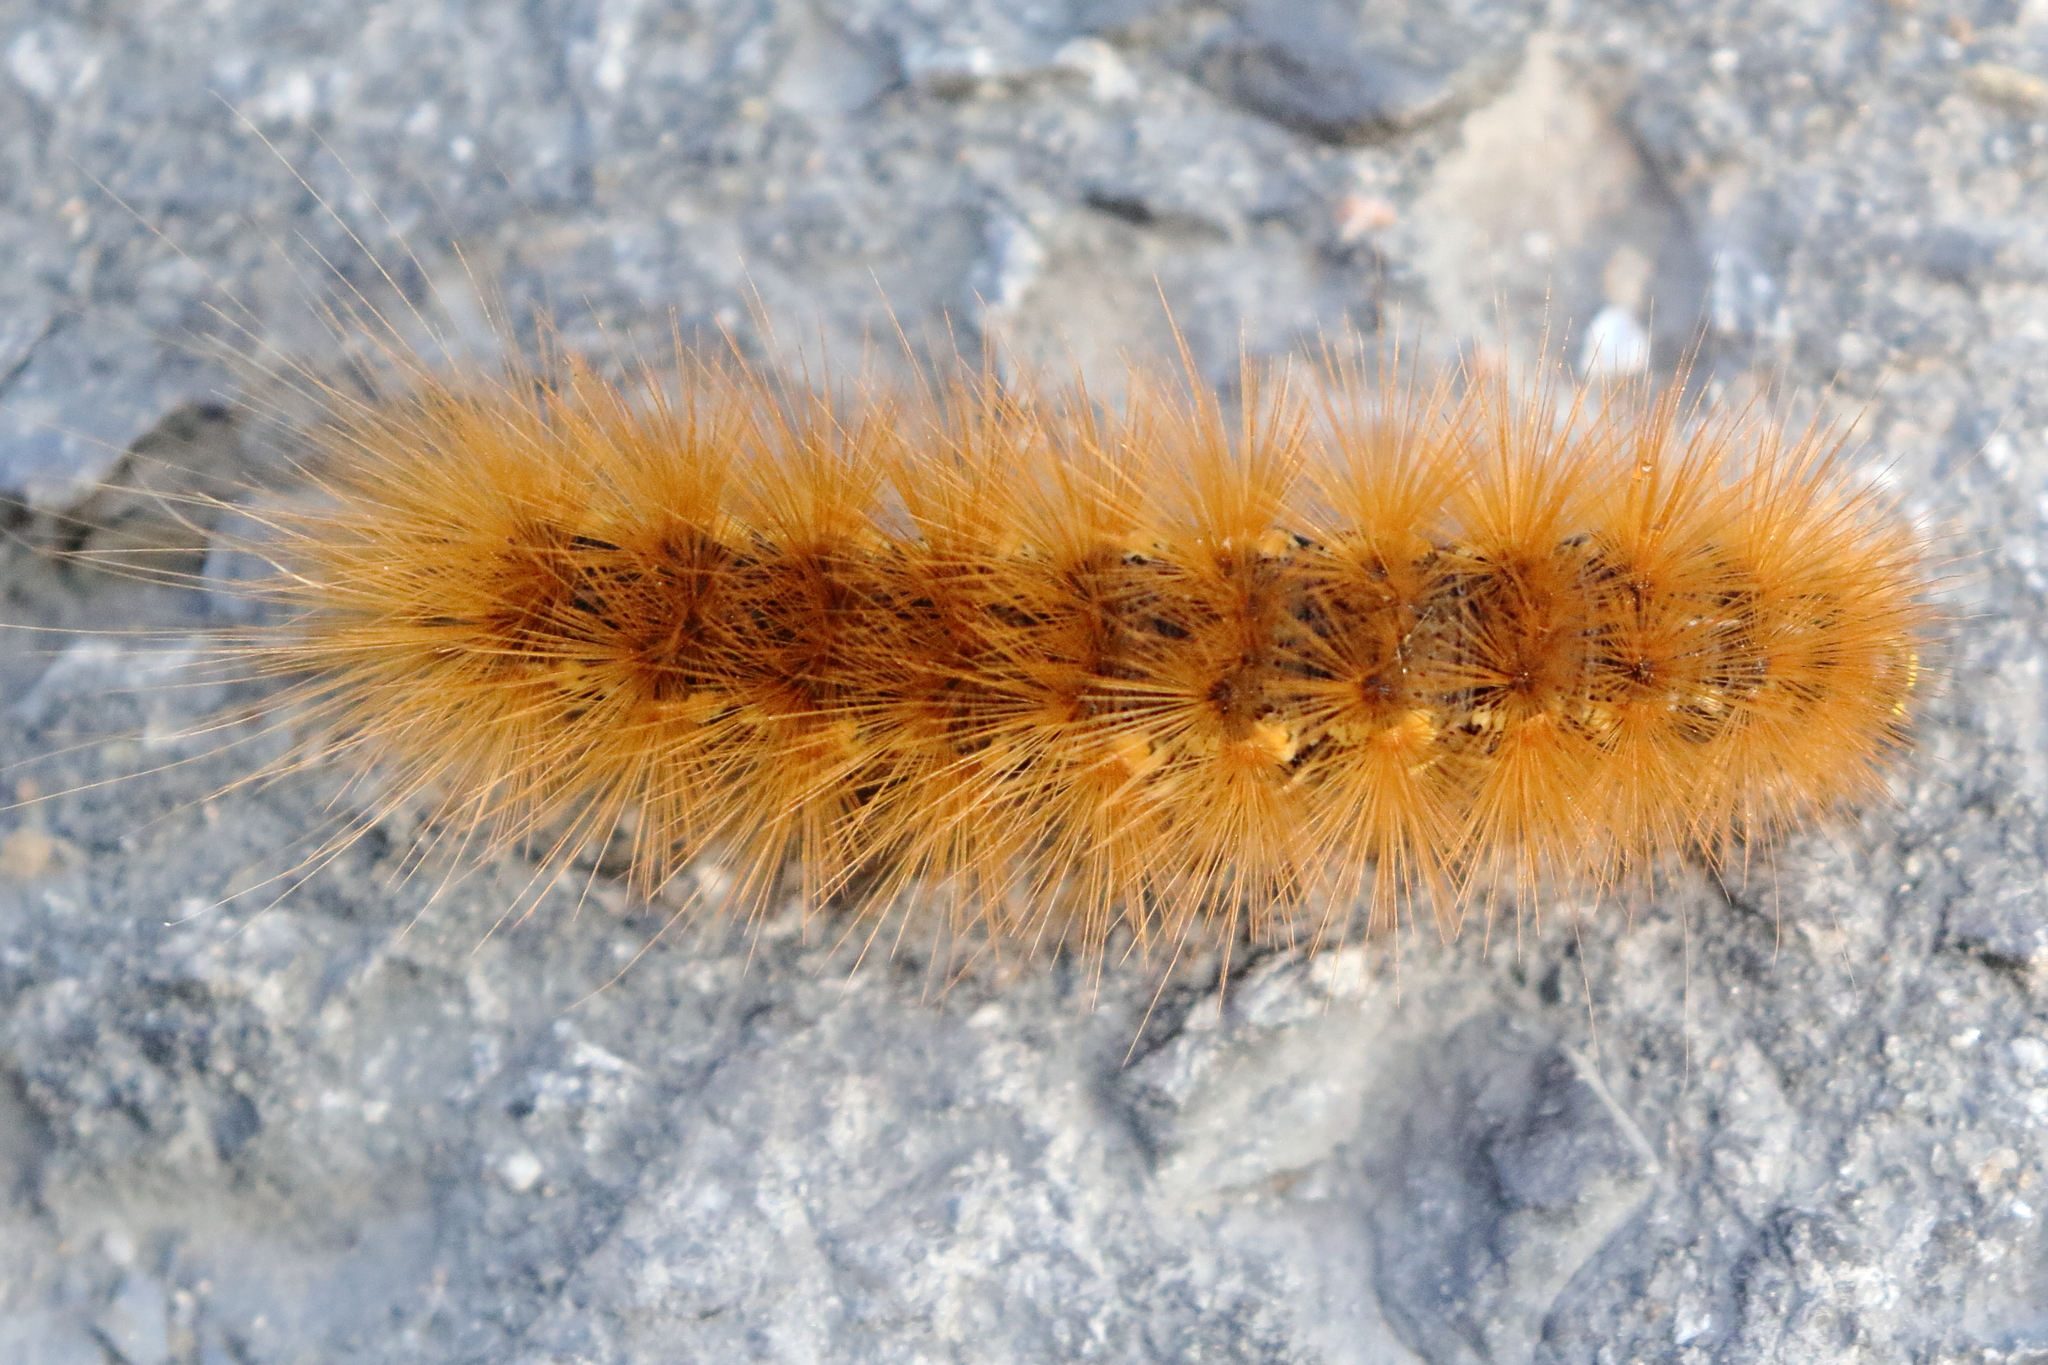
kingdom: Animalia
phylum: Arthropoda
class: Insecta
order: Lepidoptera
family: Erebidae
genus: Estigmene
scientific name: Estigmene acrea
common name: Salt marsh moth
